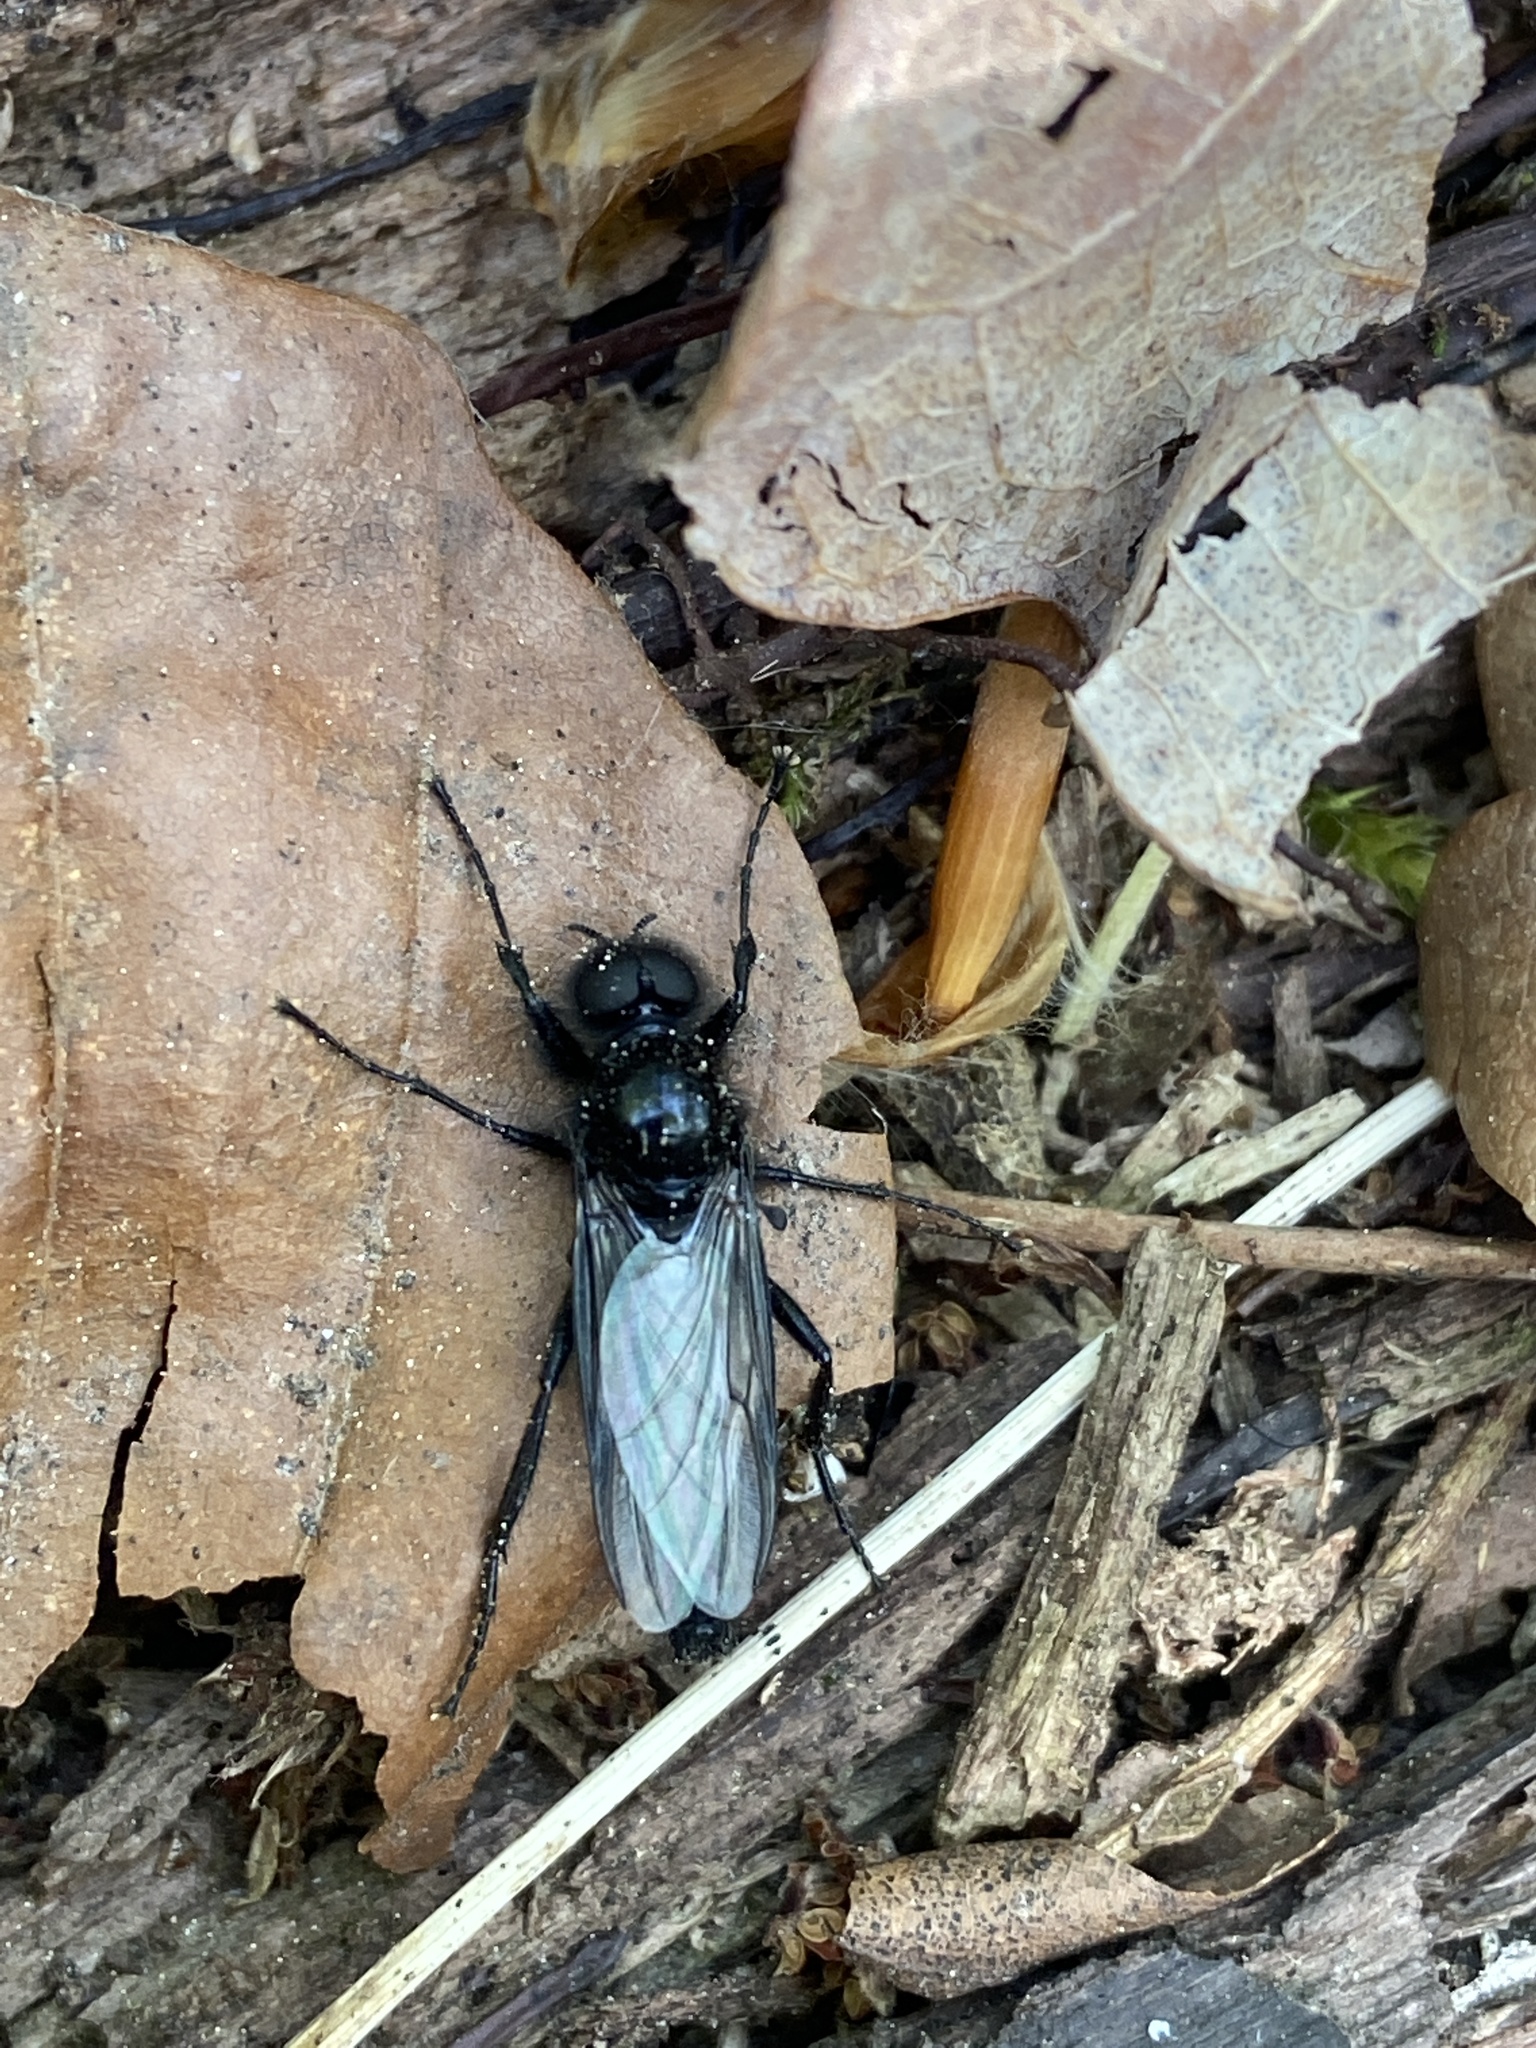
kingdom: Animalia
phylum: Arthropoda
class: Insecta
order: Diptera
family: Bibionidae
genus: Bibio
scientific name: Bibio marci
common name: St marks fly
